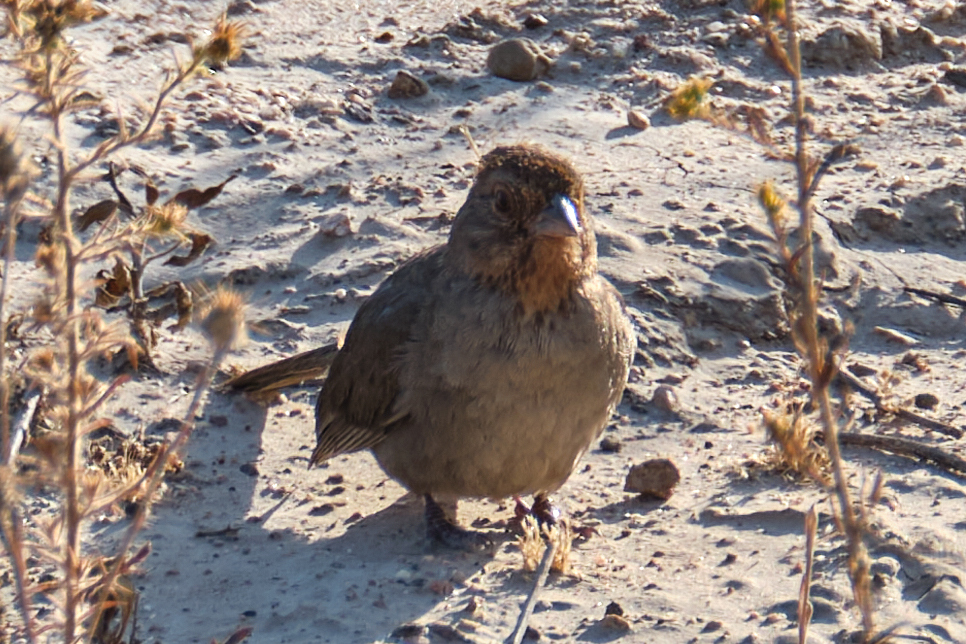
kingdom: Animalia
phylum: Chordata
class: Aves
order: Passeriformes
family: Passerellidae
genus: Melozone
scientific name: Melozone crissalis
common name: California towhee
